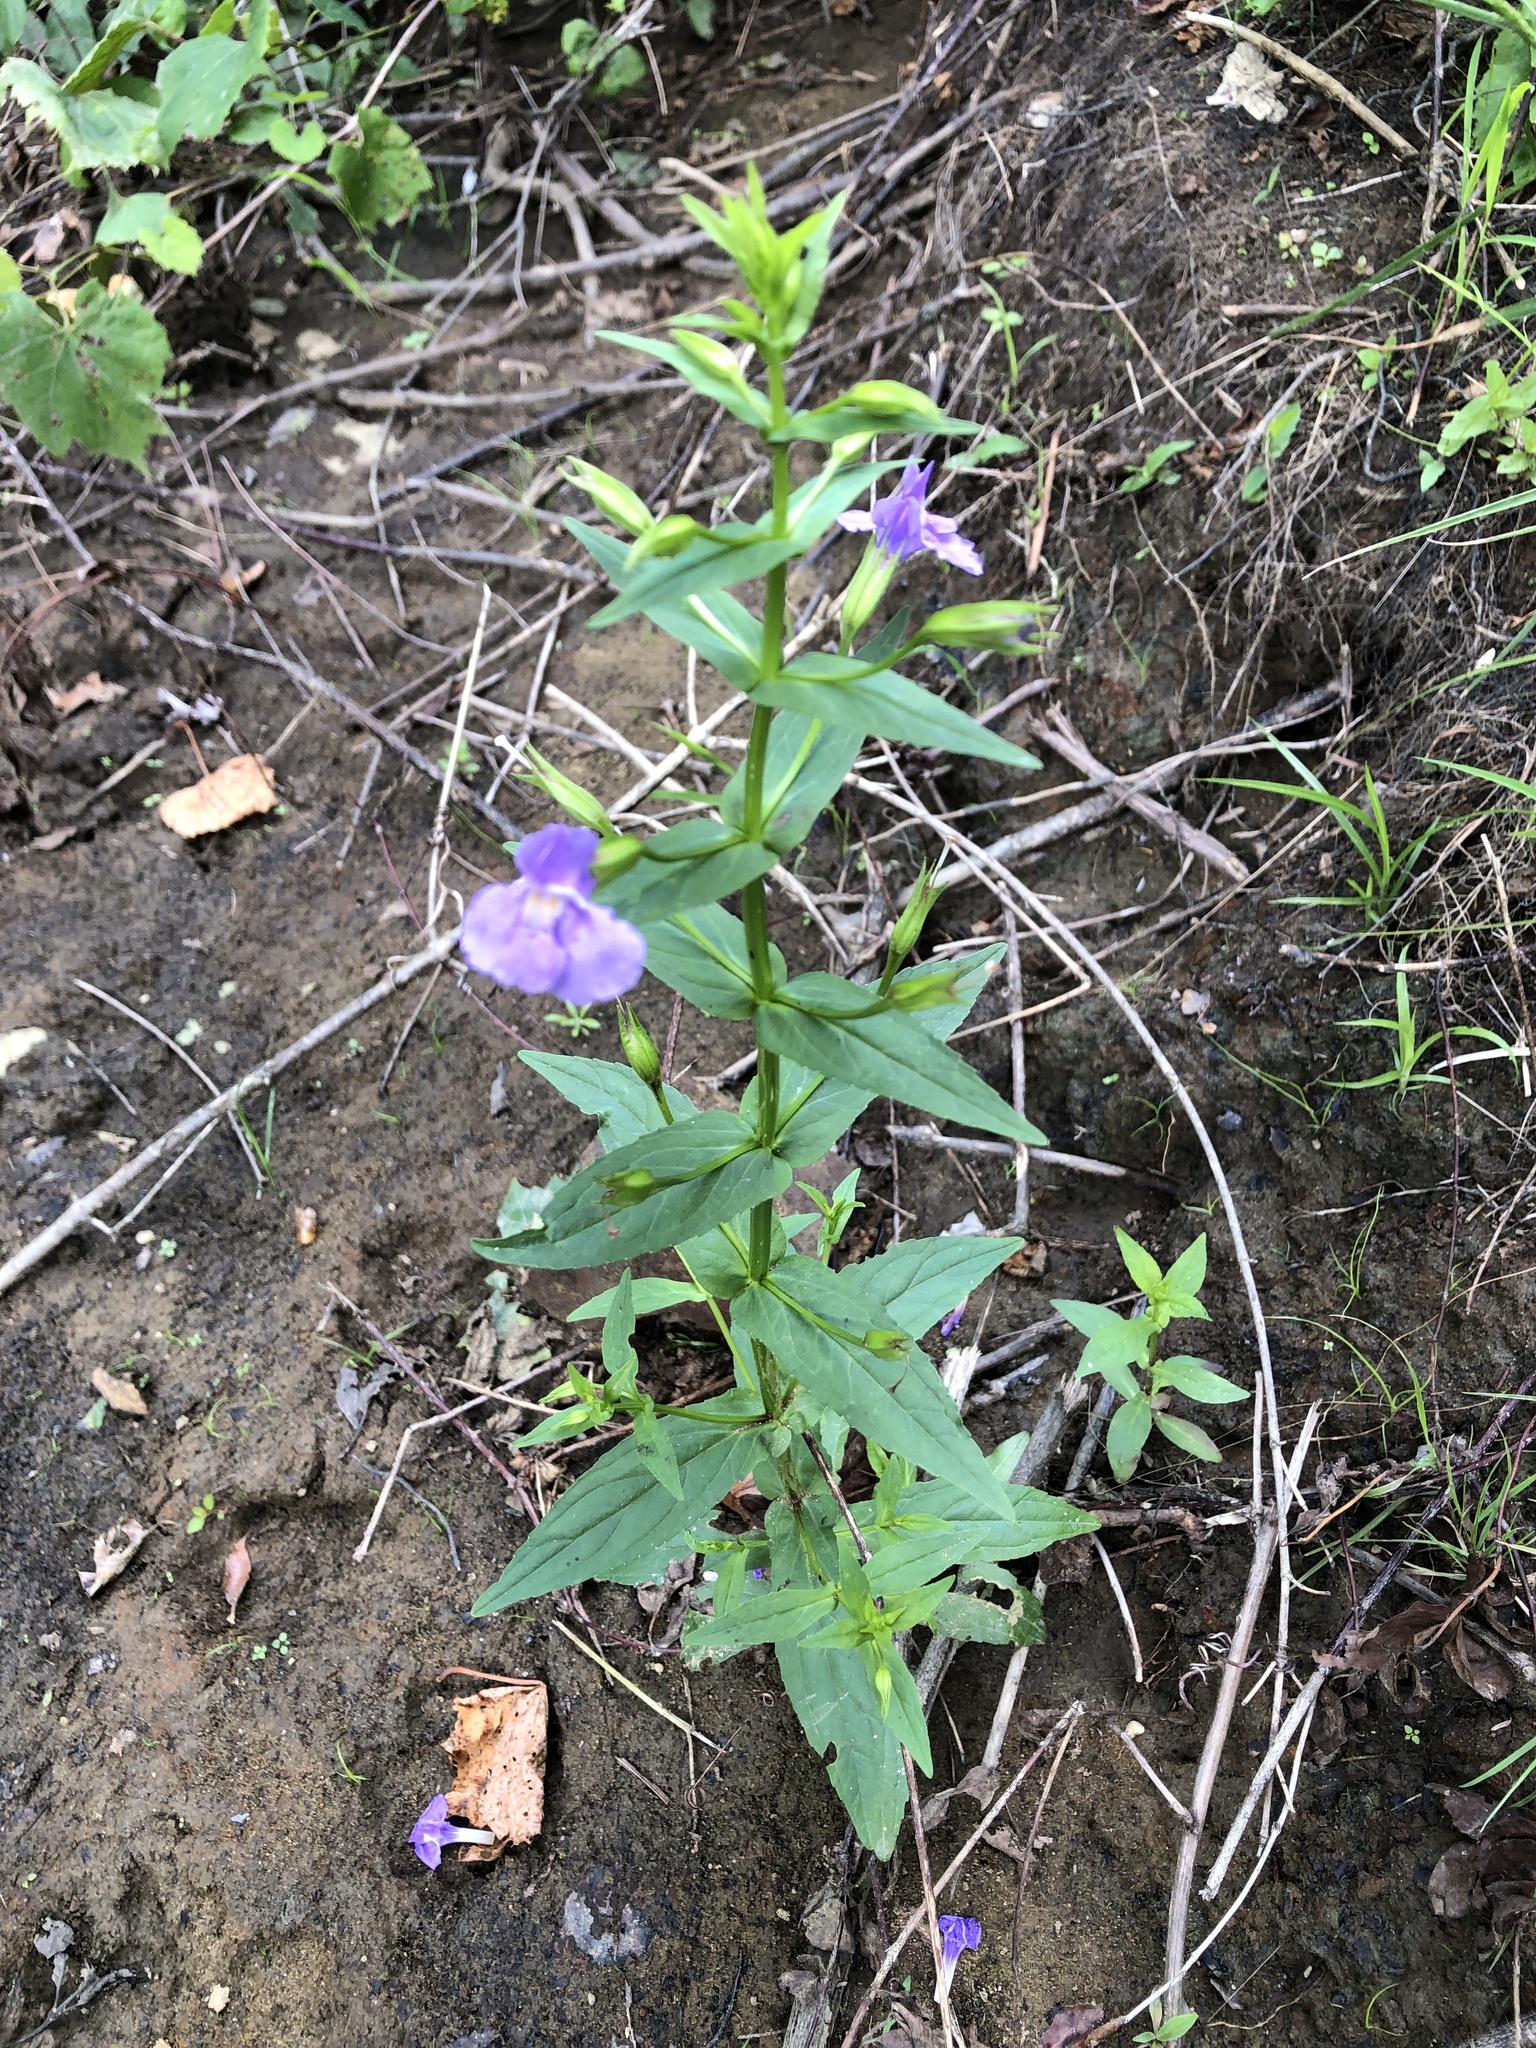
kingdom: Plantae
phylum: Tracheophyta
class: Magnoliopsida
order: Lamiales
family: Phrymaceae
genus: Mimulus
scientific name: Mimulus ringens
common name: Allegheny monkeyflower
